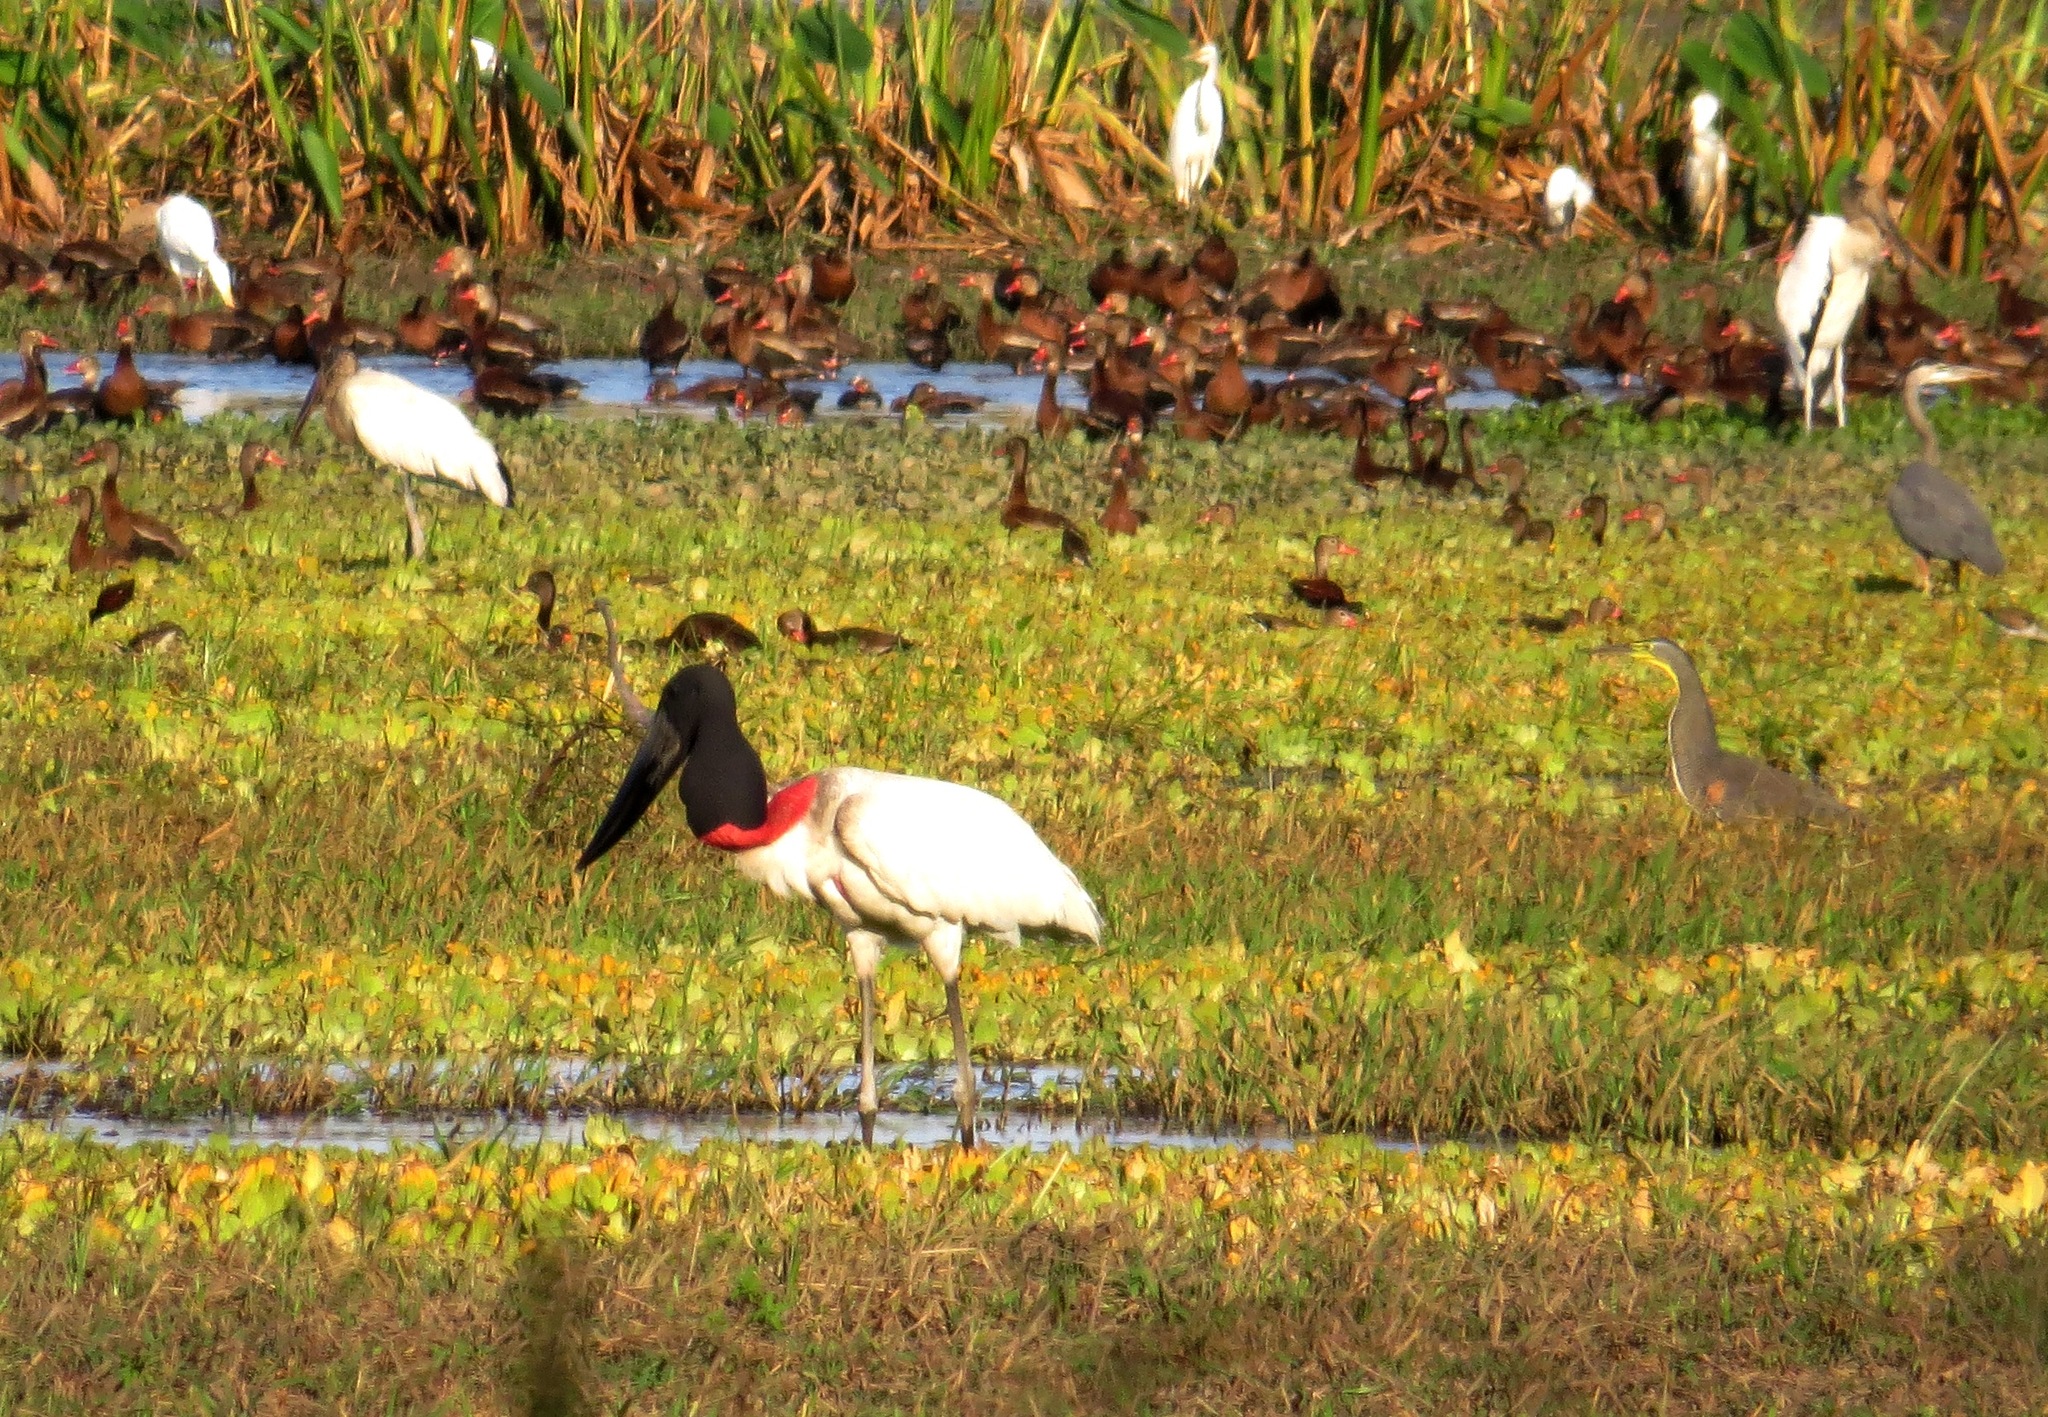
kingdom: Animalia
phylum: Chordata
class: Aves
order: Ciconiiformes
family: Ciconiidae
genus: Jabiru
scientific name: Jabiru mycteria
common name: Jabiru
